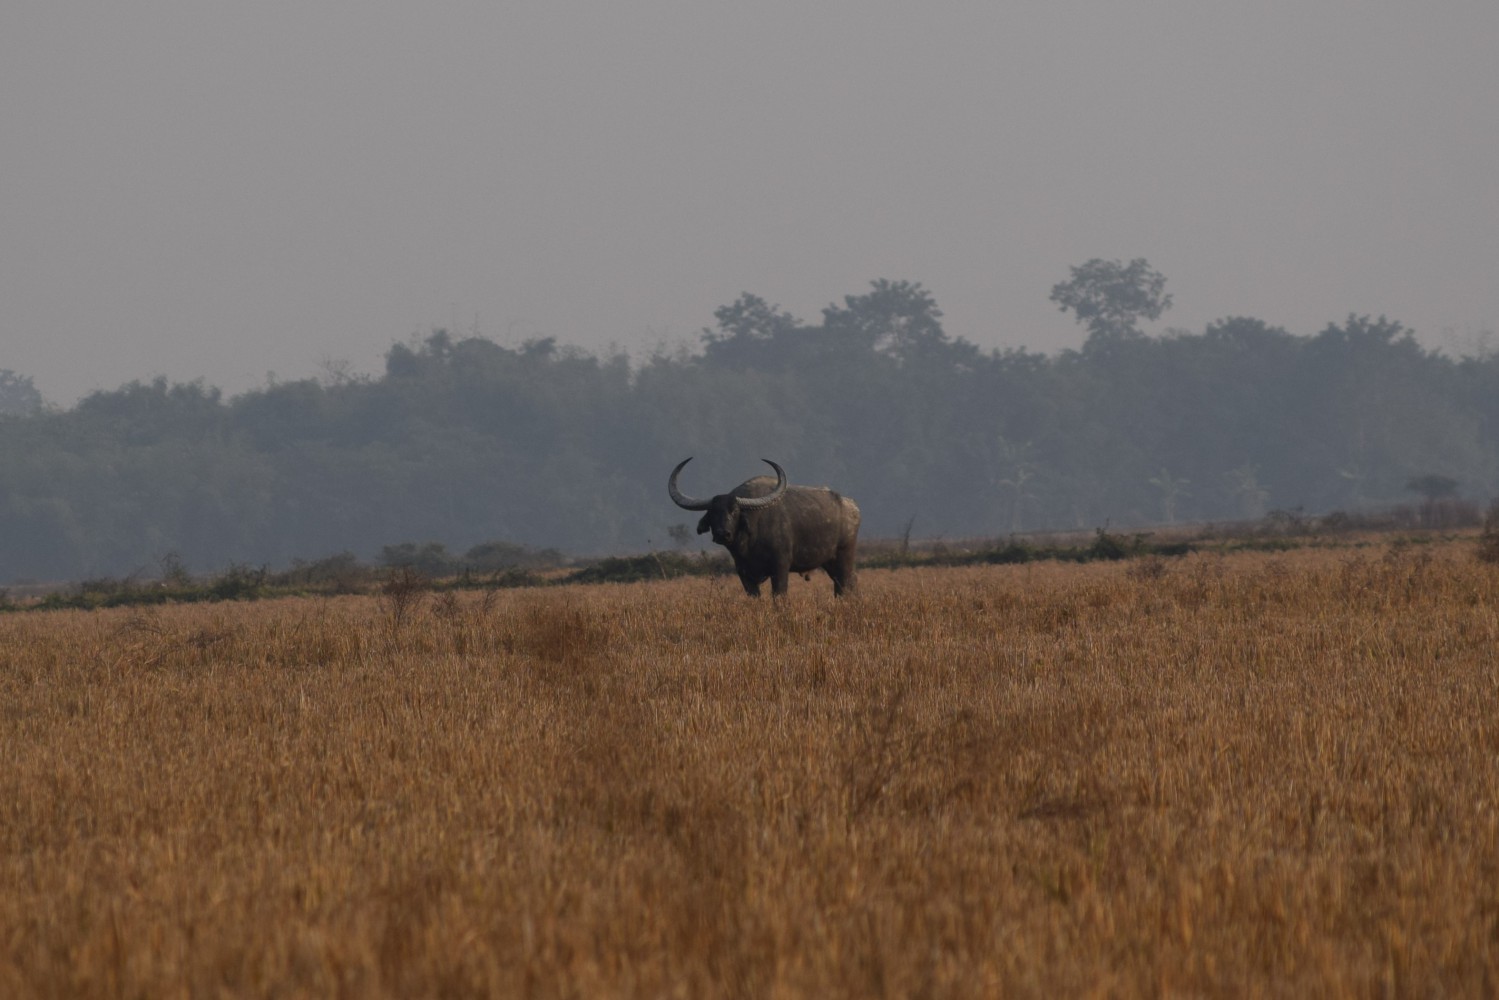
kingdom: Animalia
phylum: Chordata
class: Mammalia
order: Artiodactyla
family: Bovidae
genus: Bubalus
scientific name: Bubalus bubalis
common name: Water buffalo
